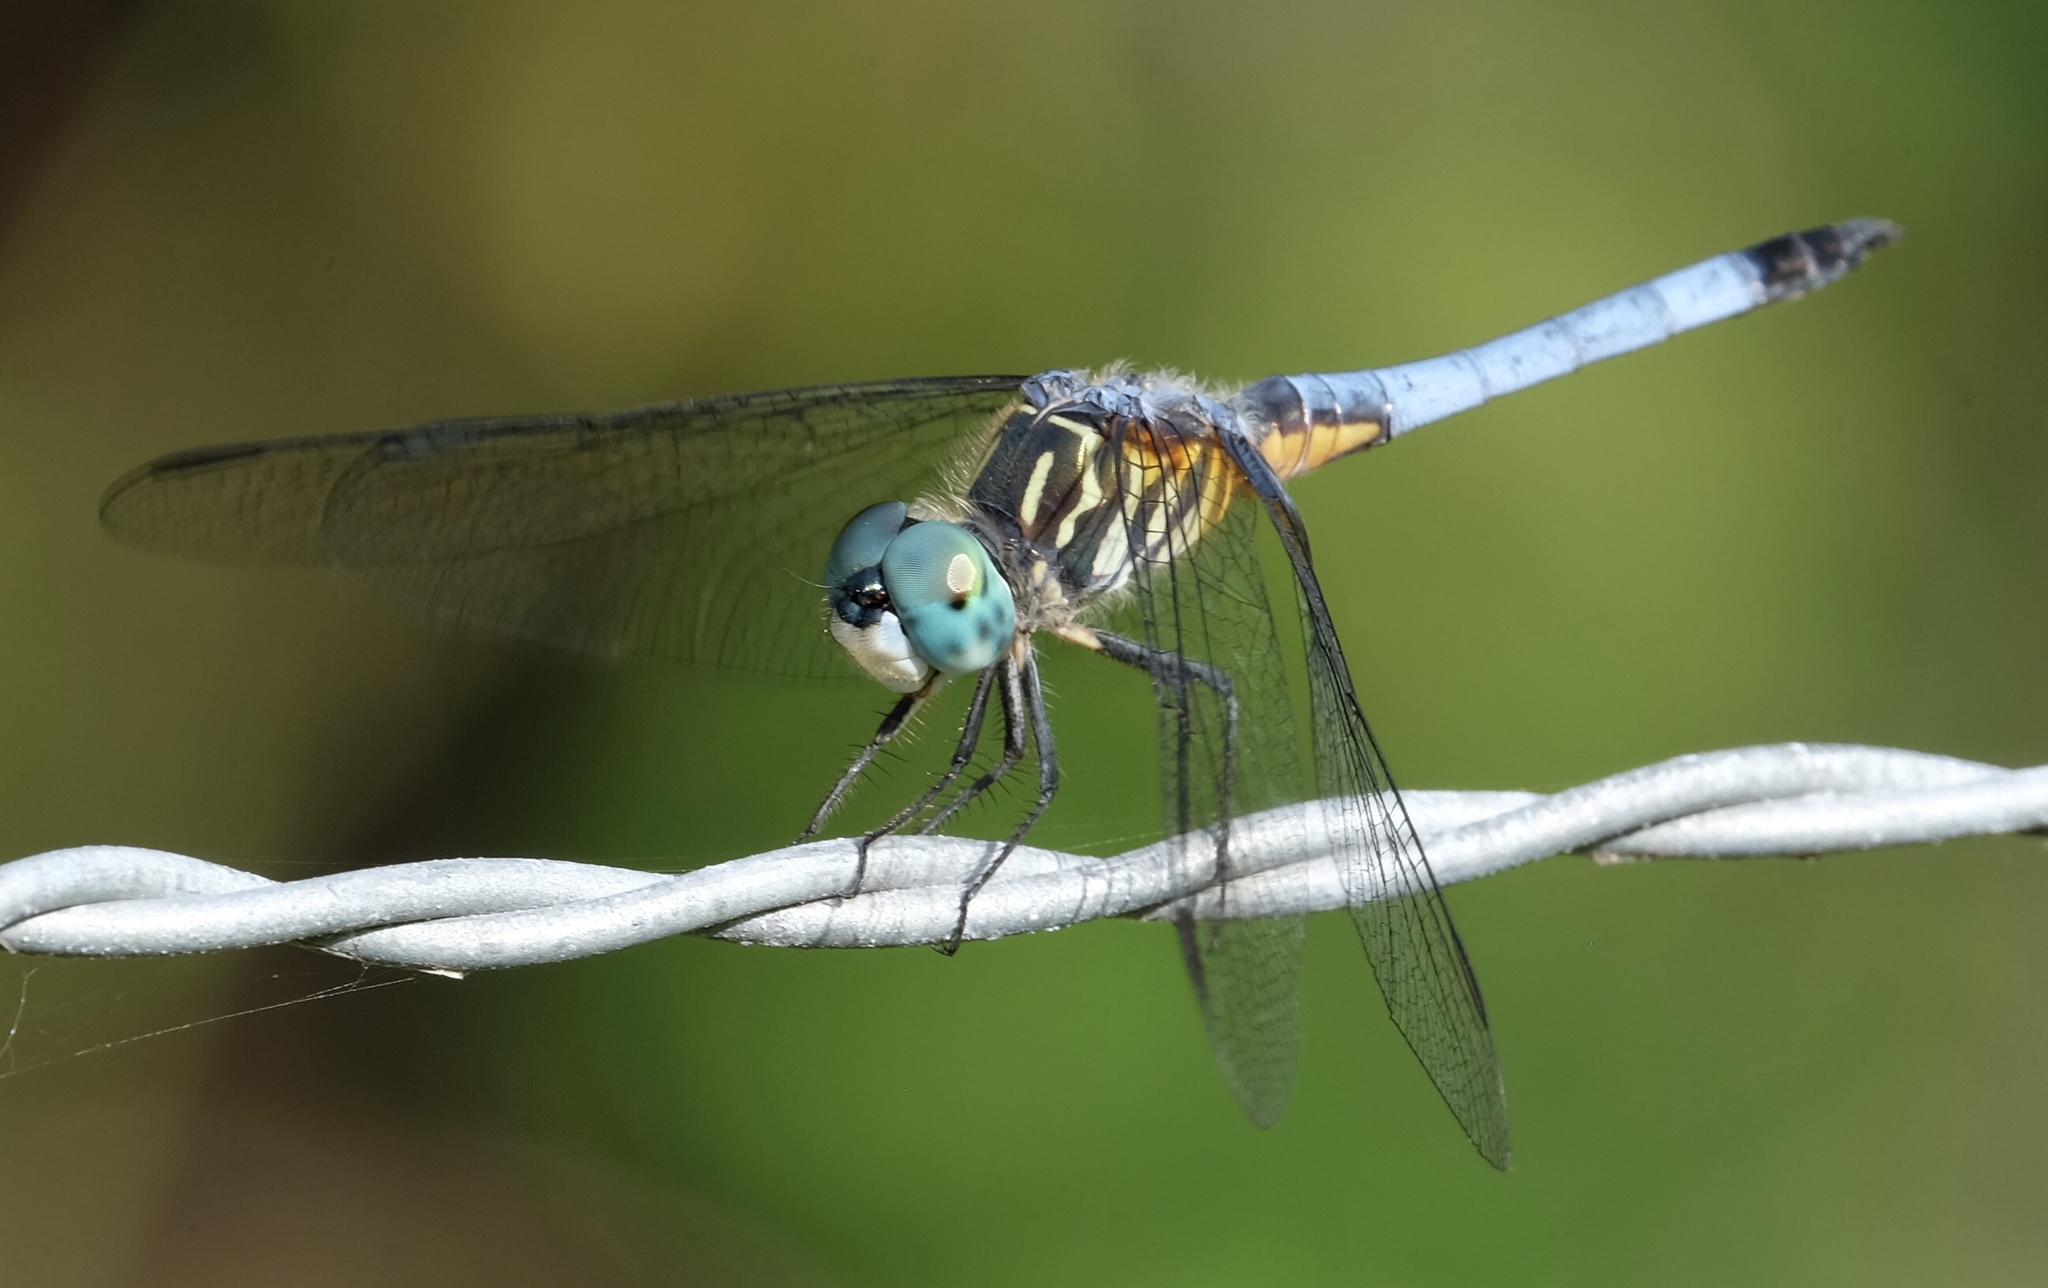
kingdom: Animalia
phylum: Arthropoda
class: Insecta
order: Odonata
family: Libellulidae
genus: Pachydiplax
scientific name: Pachydiplax longipennis
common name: Blue dasher
